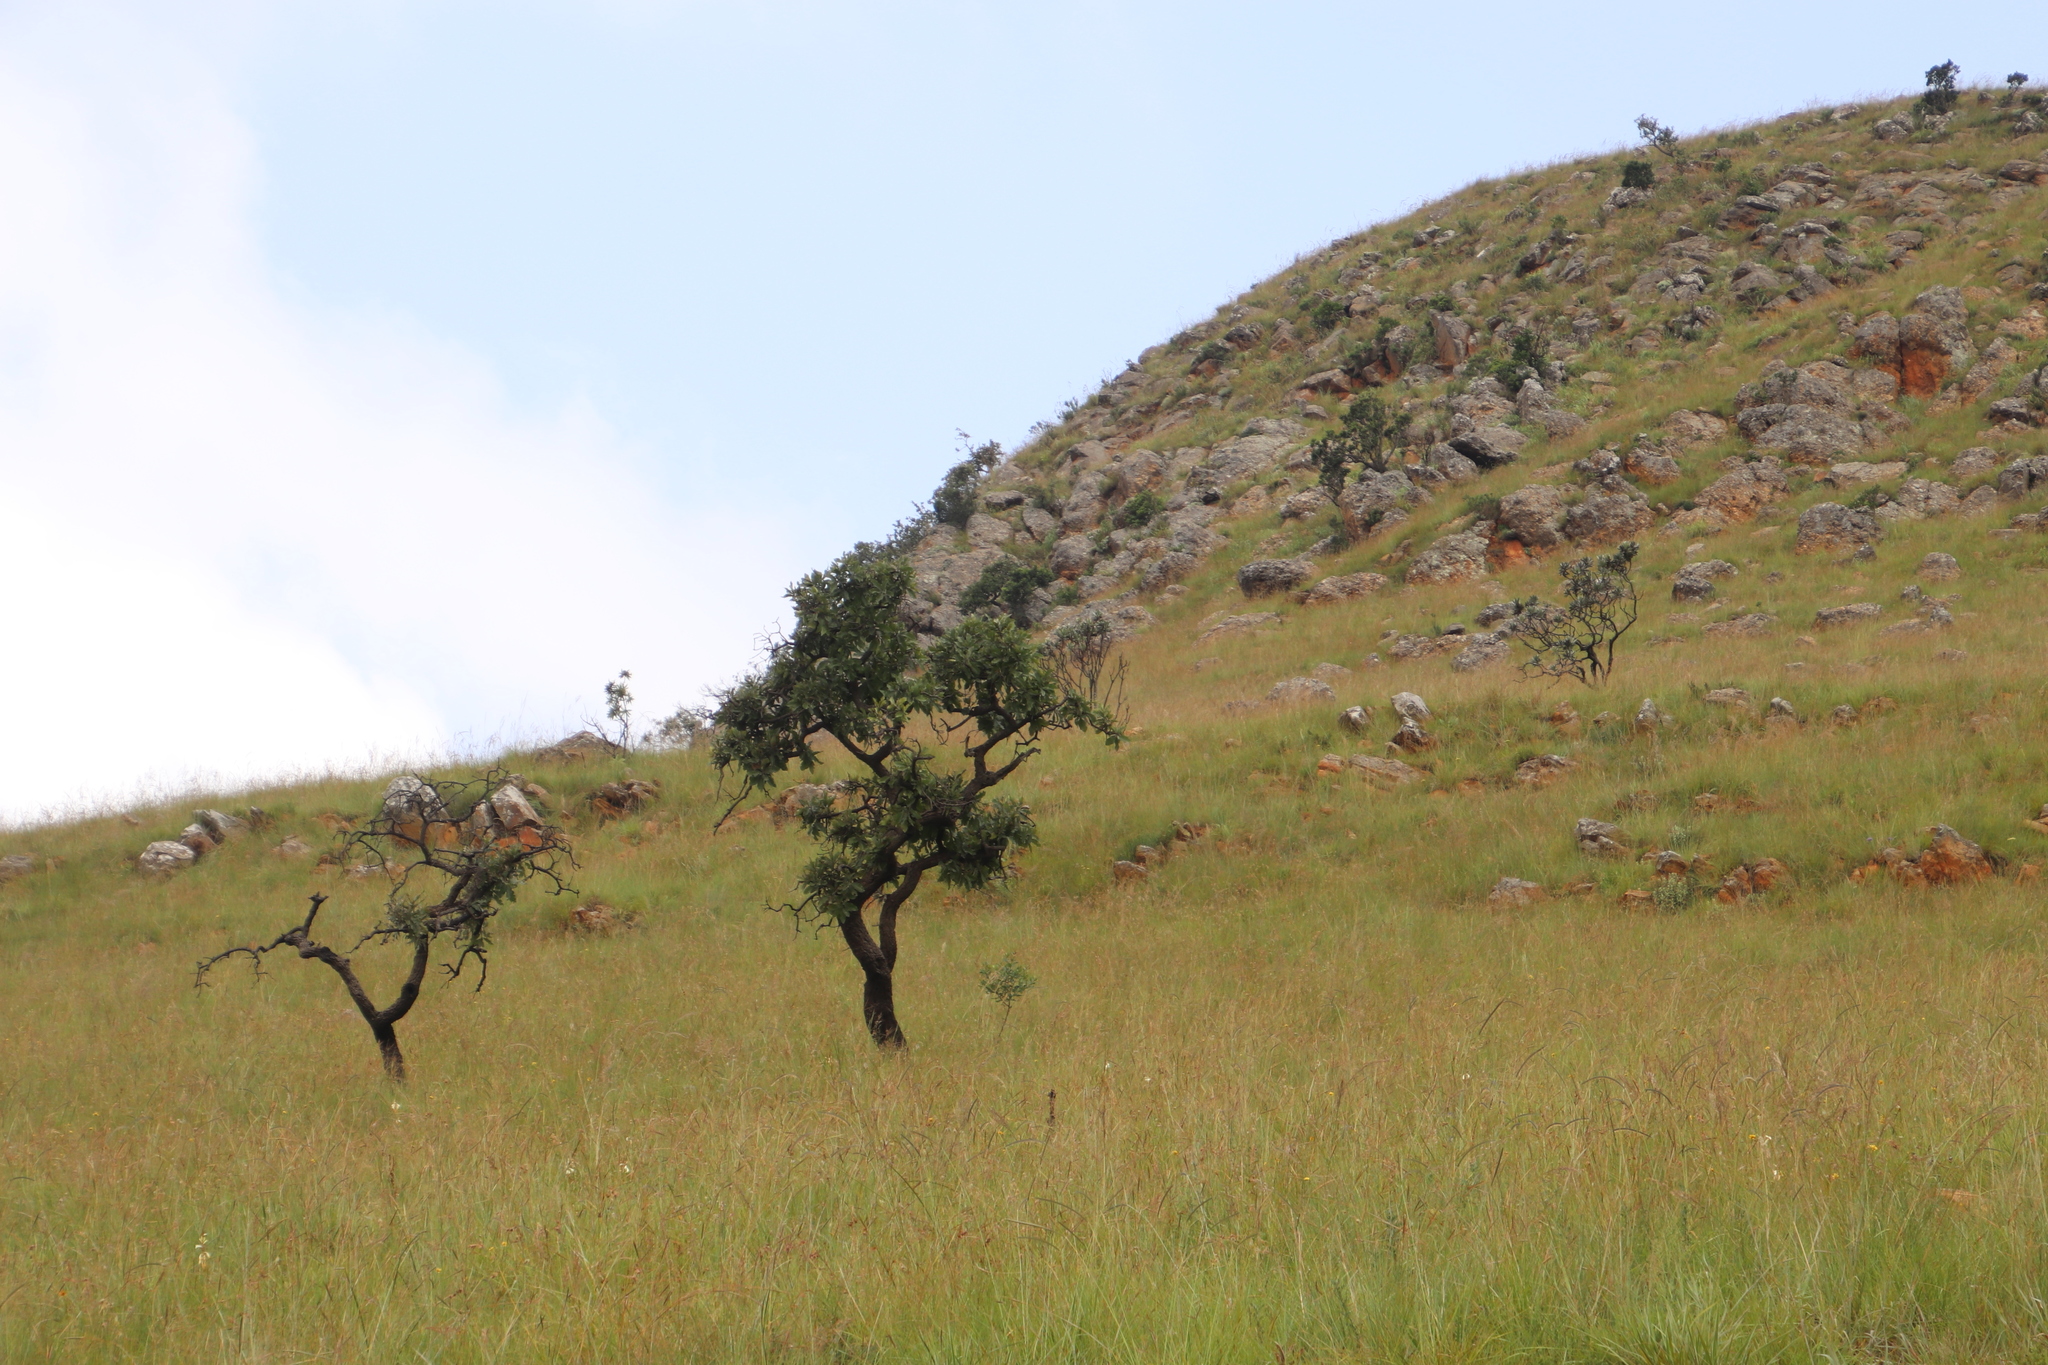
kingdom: Plantae
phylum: Tracheophyta
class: Magnoliopsida
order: Proteales
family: Proteaceae
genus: Faurea
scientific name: Faurea rochetiana
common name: Broad-leaved beech
